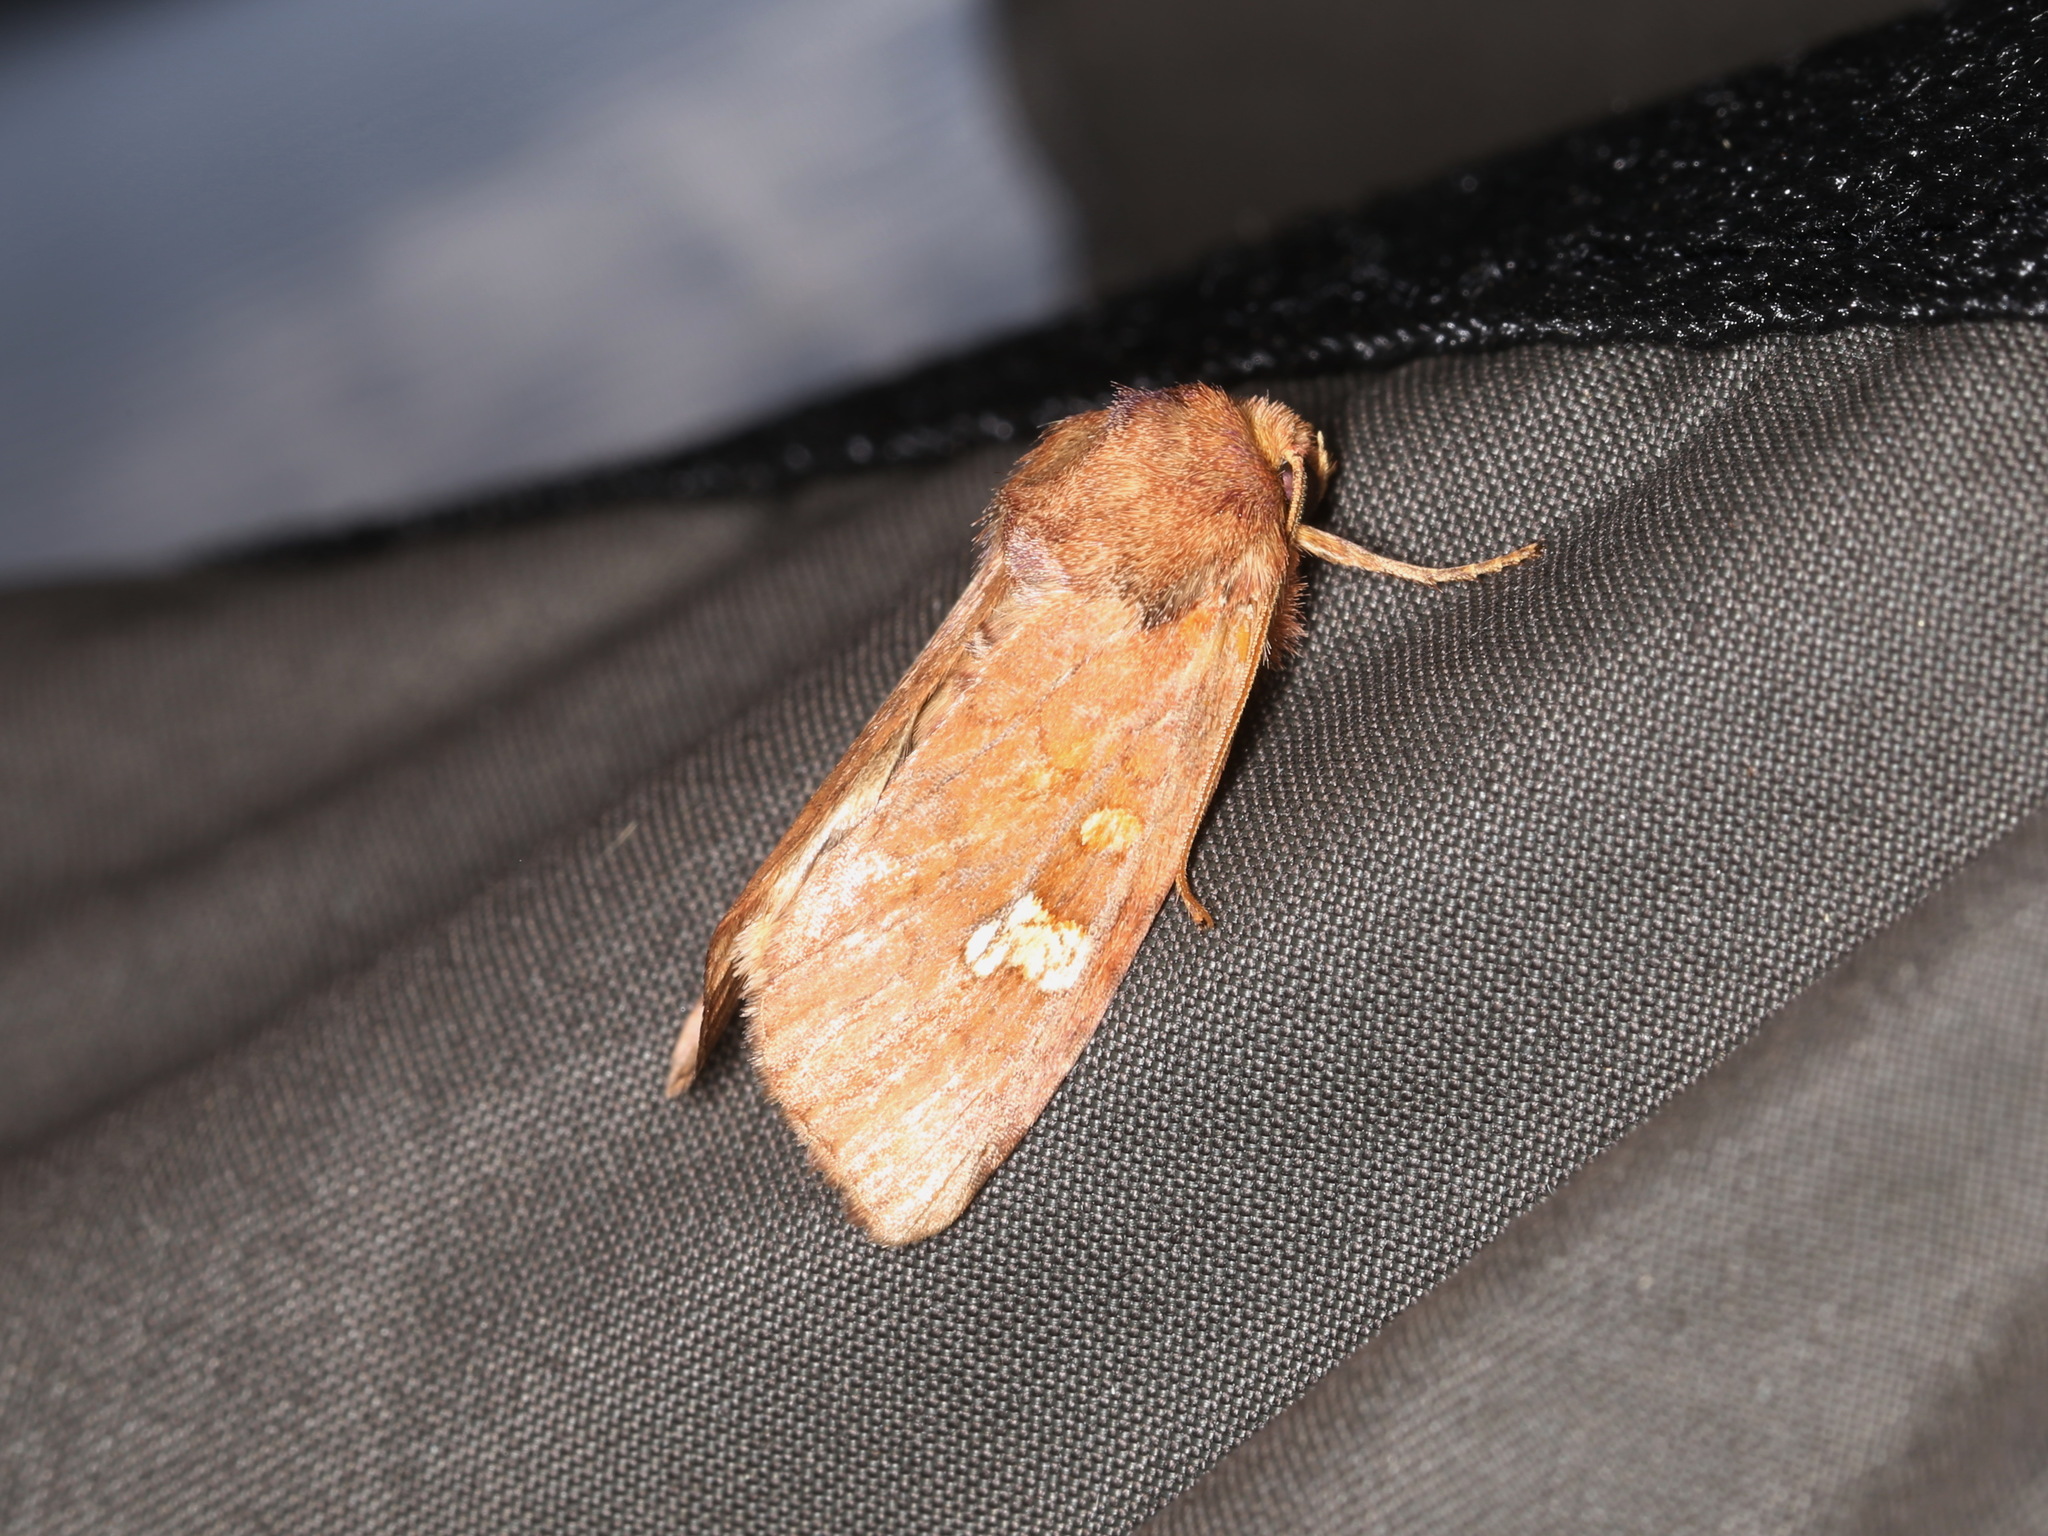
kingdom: Animalia
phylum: Arthropoda
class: Insecta
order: Lepidoptera
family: Noctuidae
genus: Amphipoea
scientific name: Amphipoea
